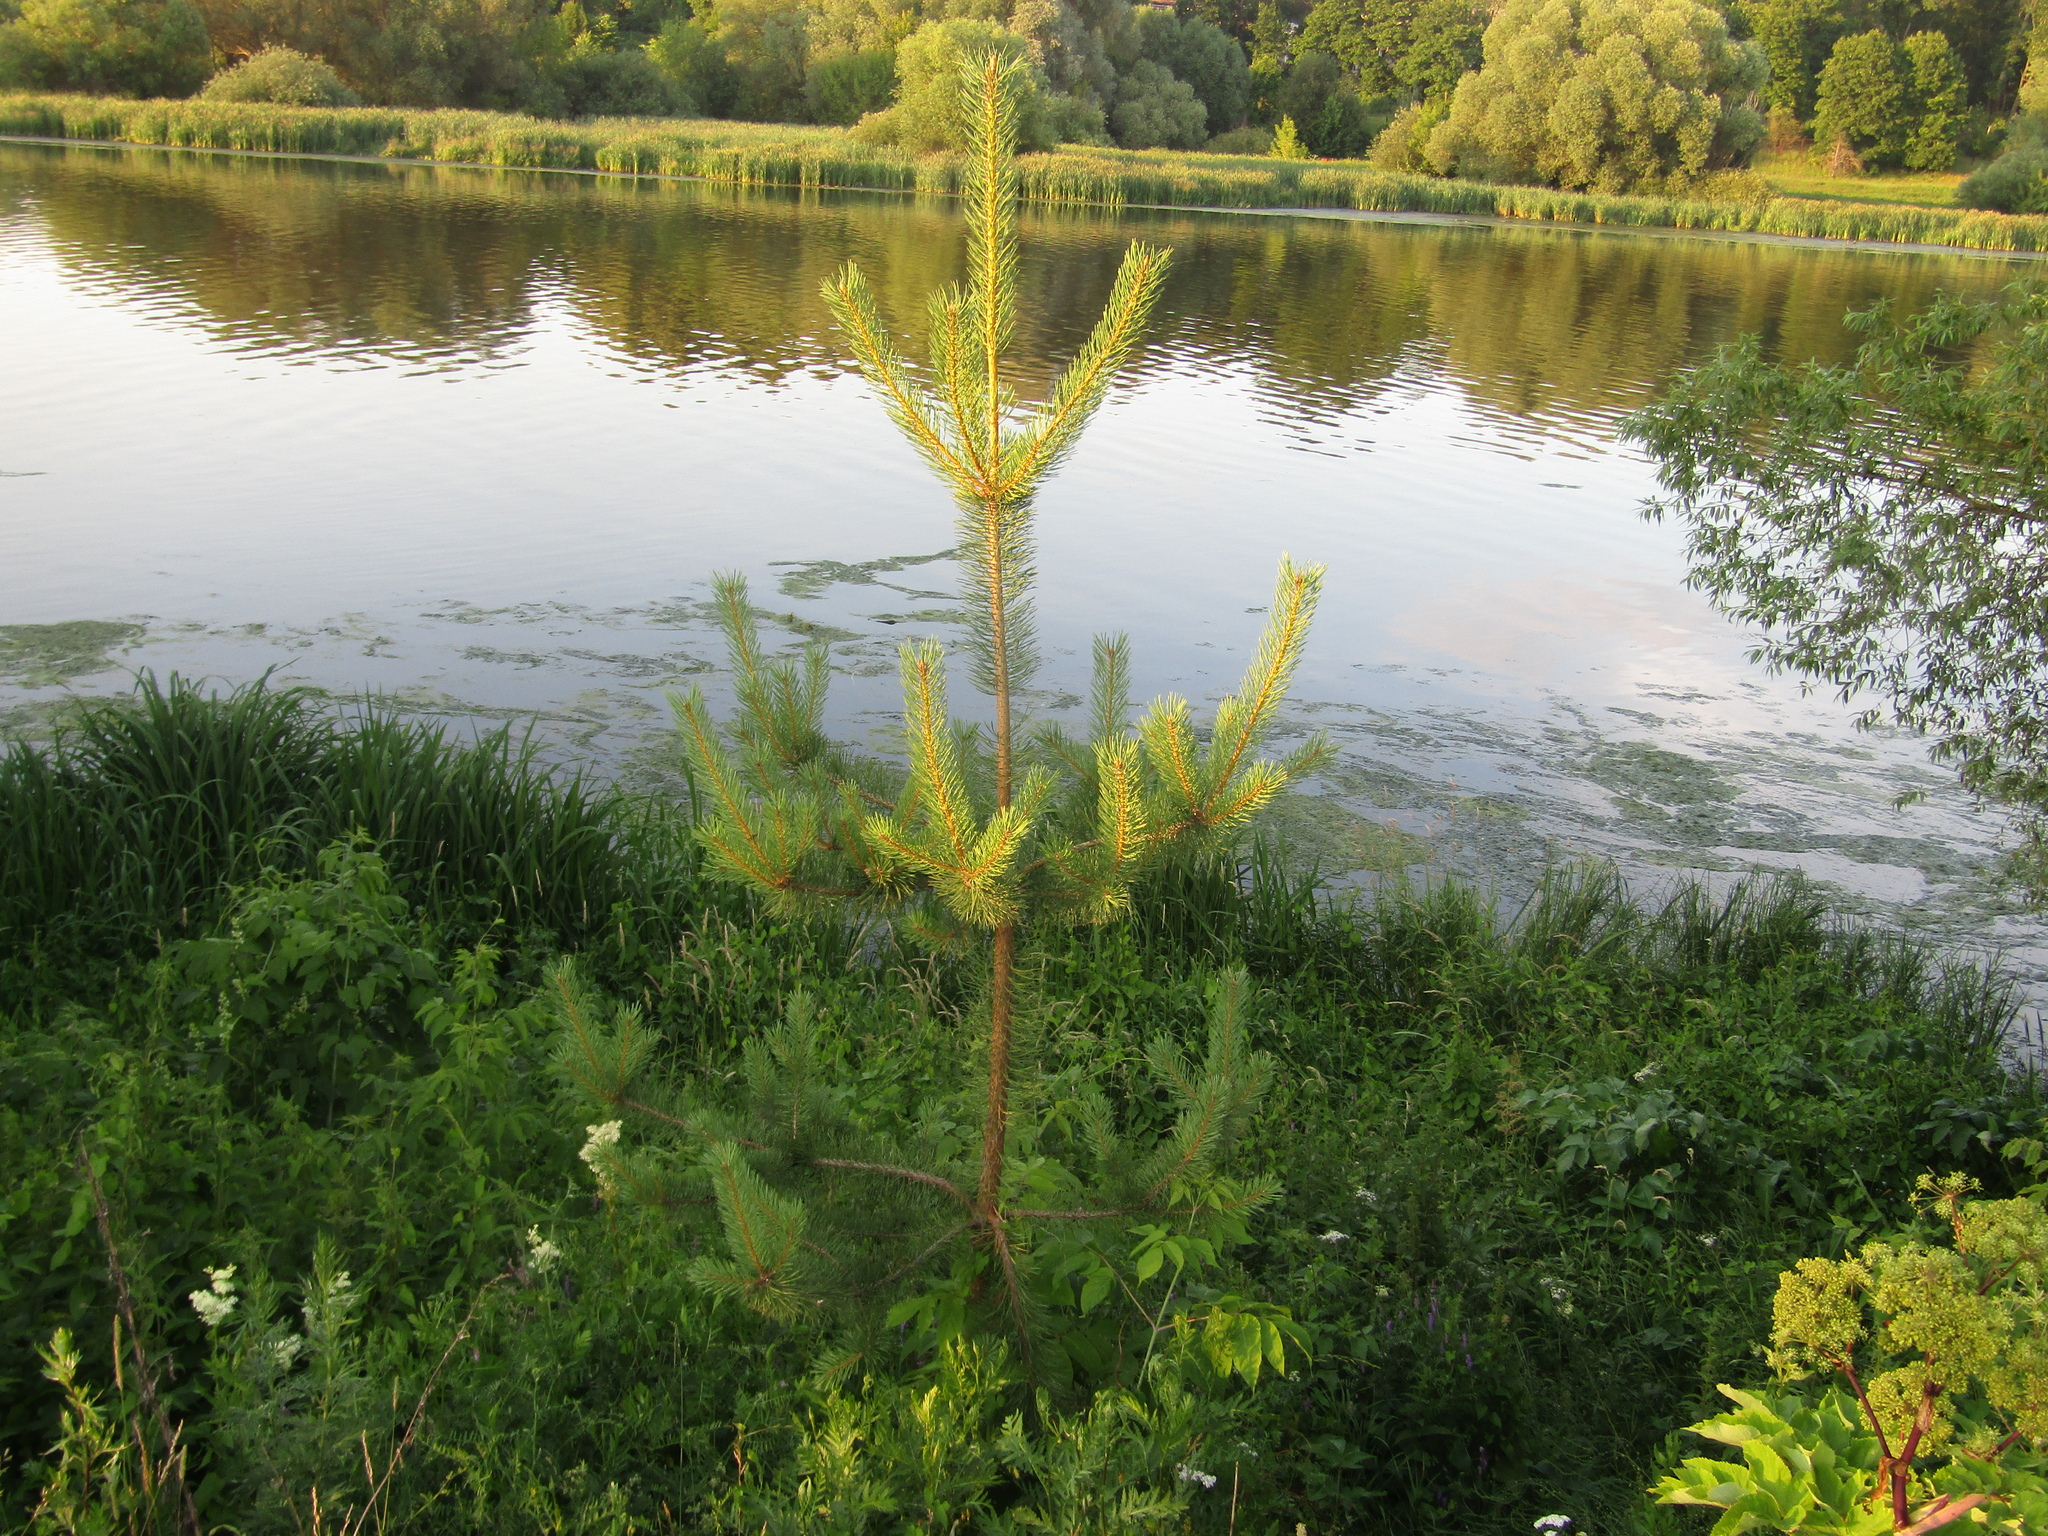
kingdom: Plantae
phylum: Tracheophyta
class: Pinopsida
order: Pinales
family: Pinaceae
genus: Pinus
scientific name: Pinus sylvestris
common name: Scots pine
